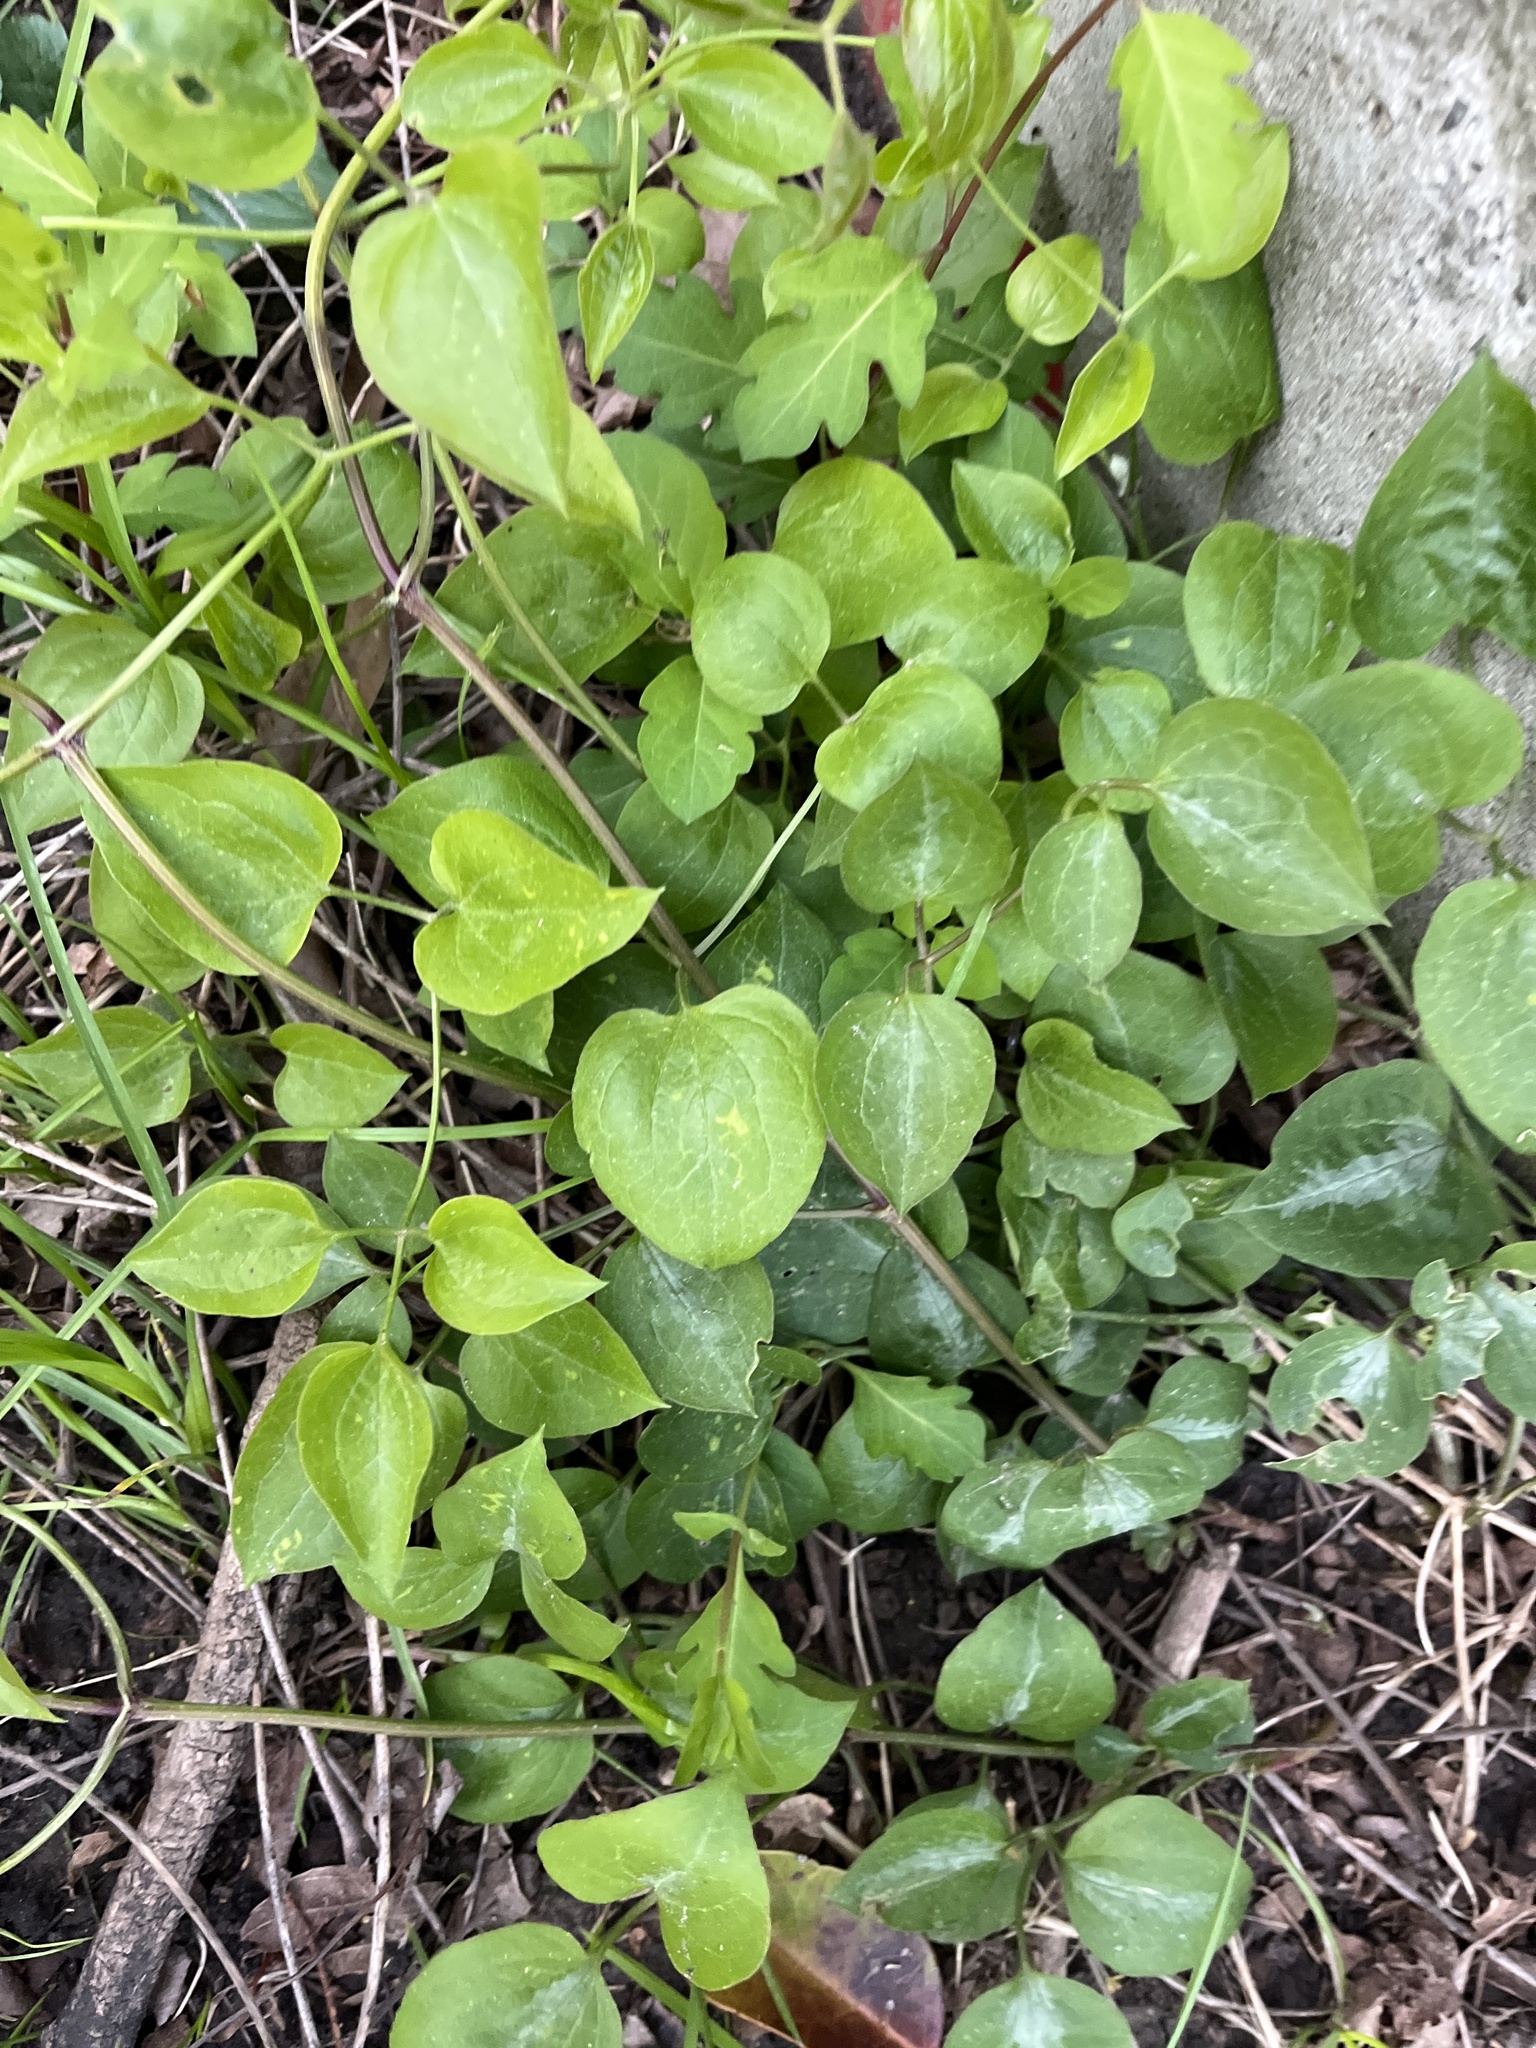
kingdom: Plantae
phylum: Tracheophyta
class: Magnoliopsida
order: Ranunculales
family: Ranunculaceae
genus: Clematis
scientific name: Clematis terniflora
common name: Sweet autumn clematis
